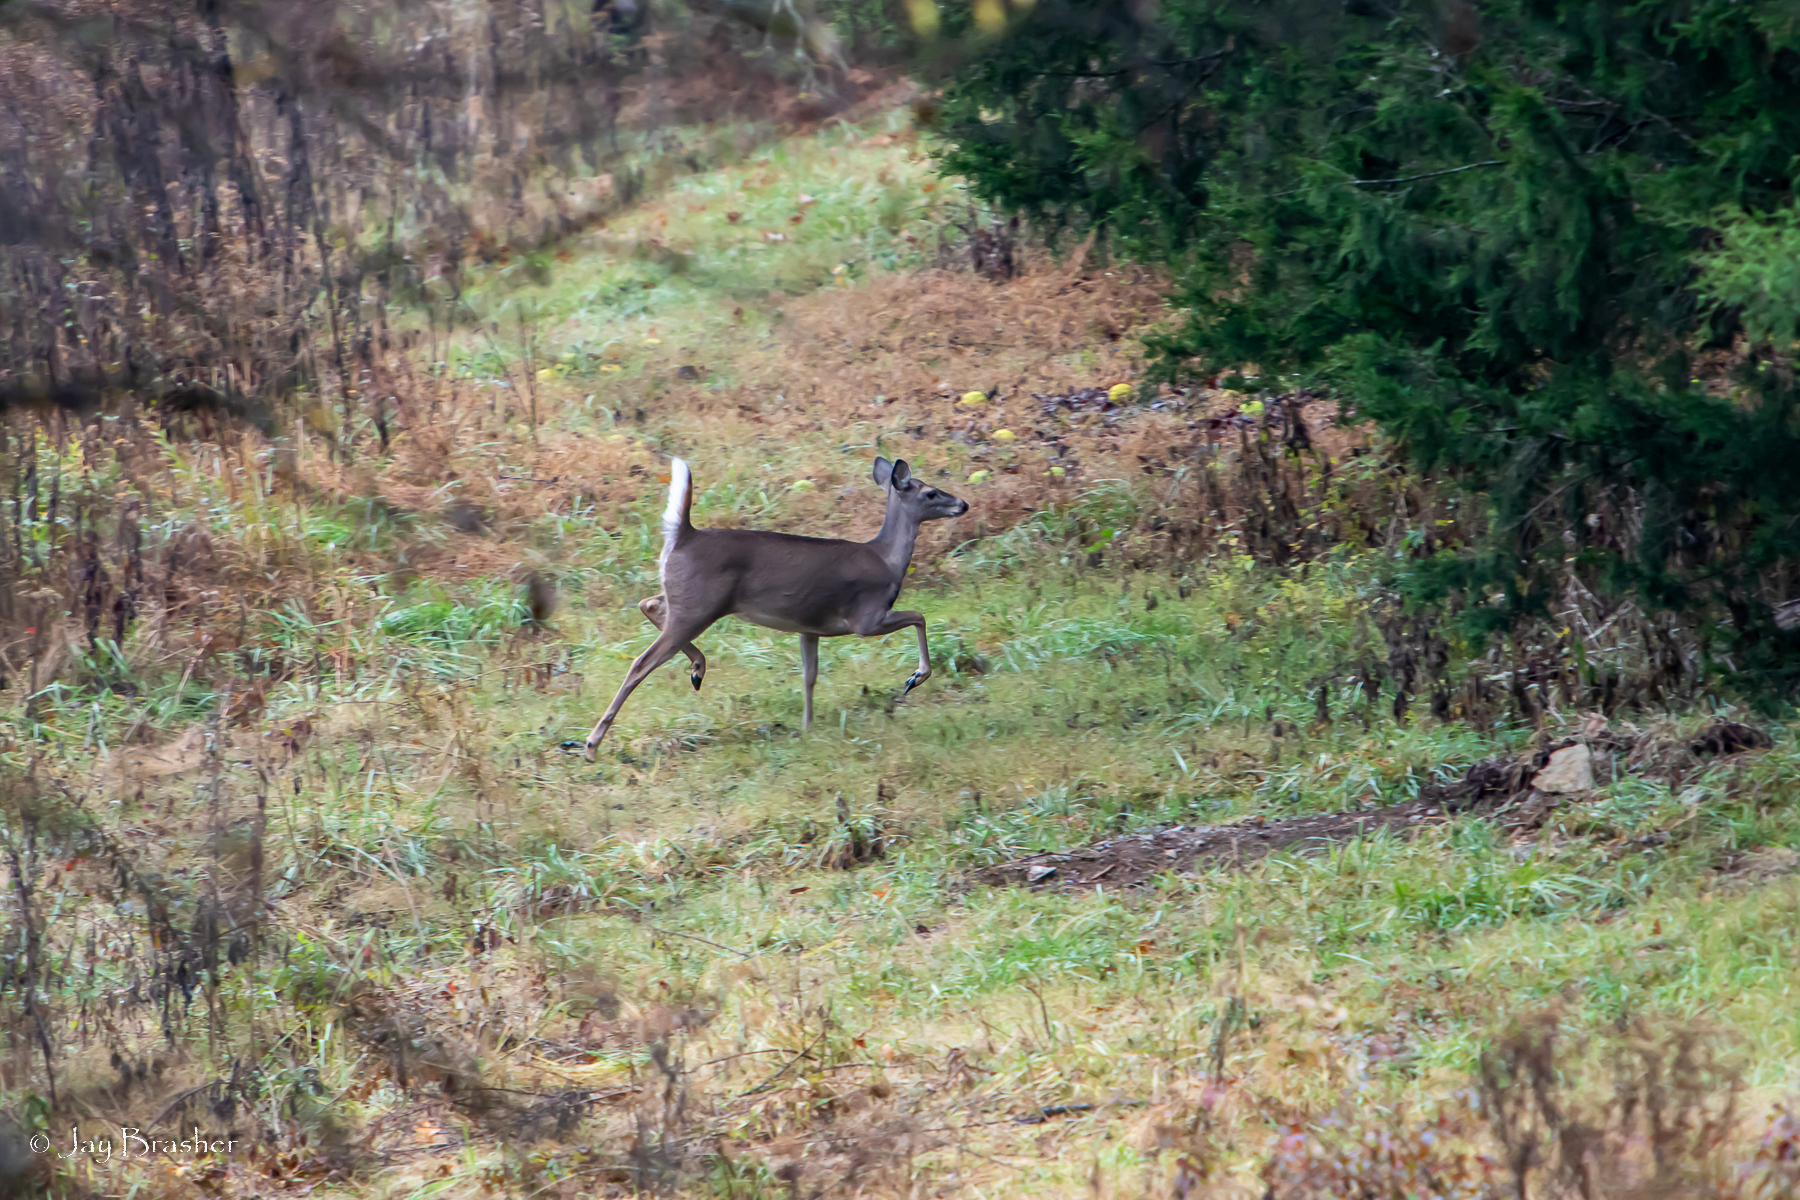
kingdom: Animalia
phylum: Chordata
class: Mammalia
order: Artiodactyla
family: Cervidae
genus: Odocoileus
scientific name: Odocoileus virginianus
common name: White-tailed deer
